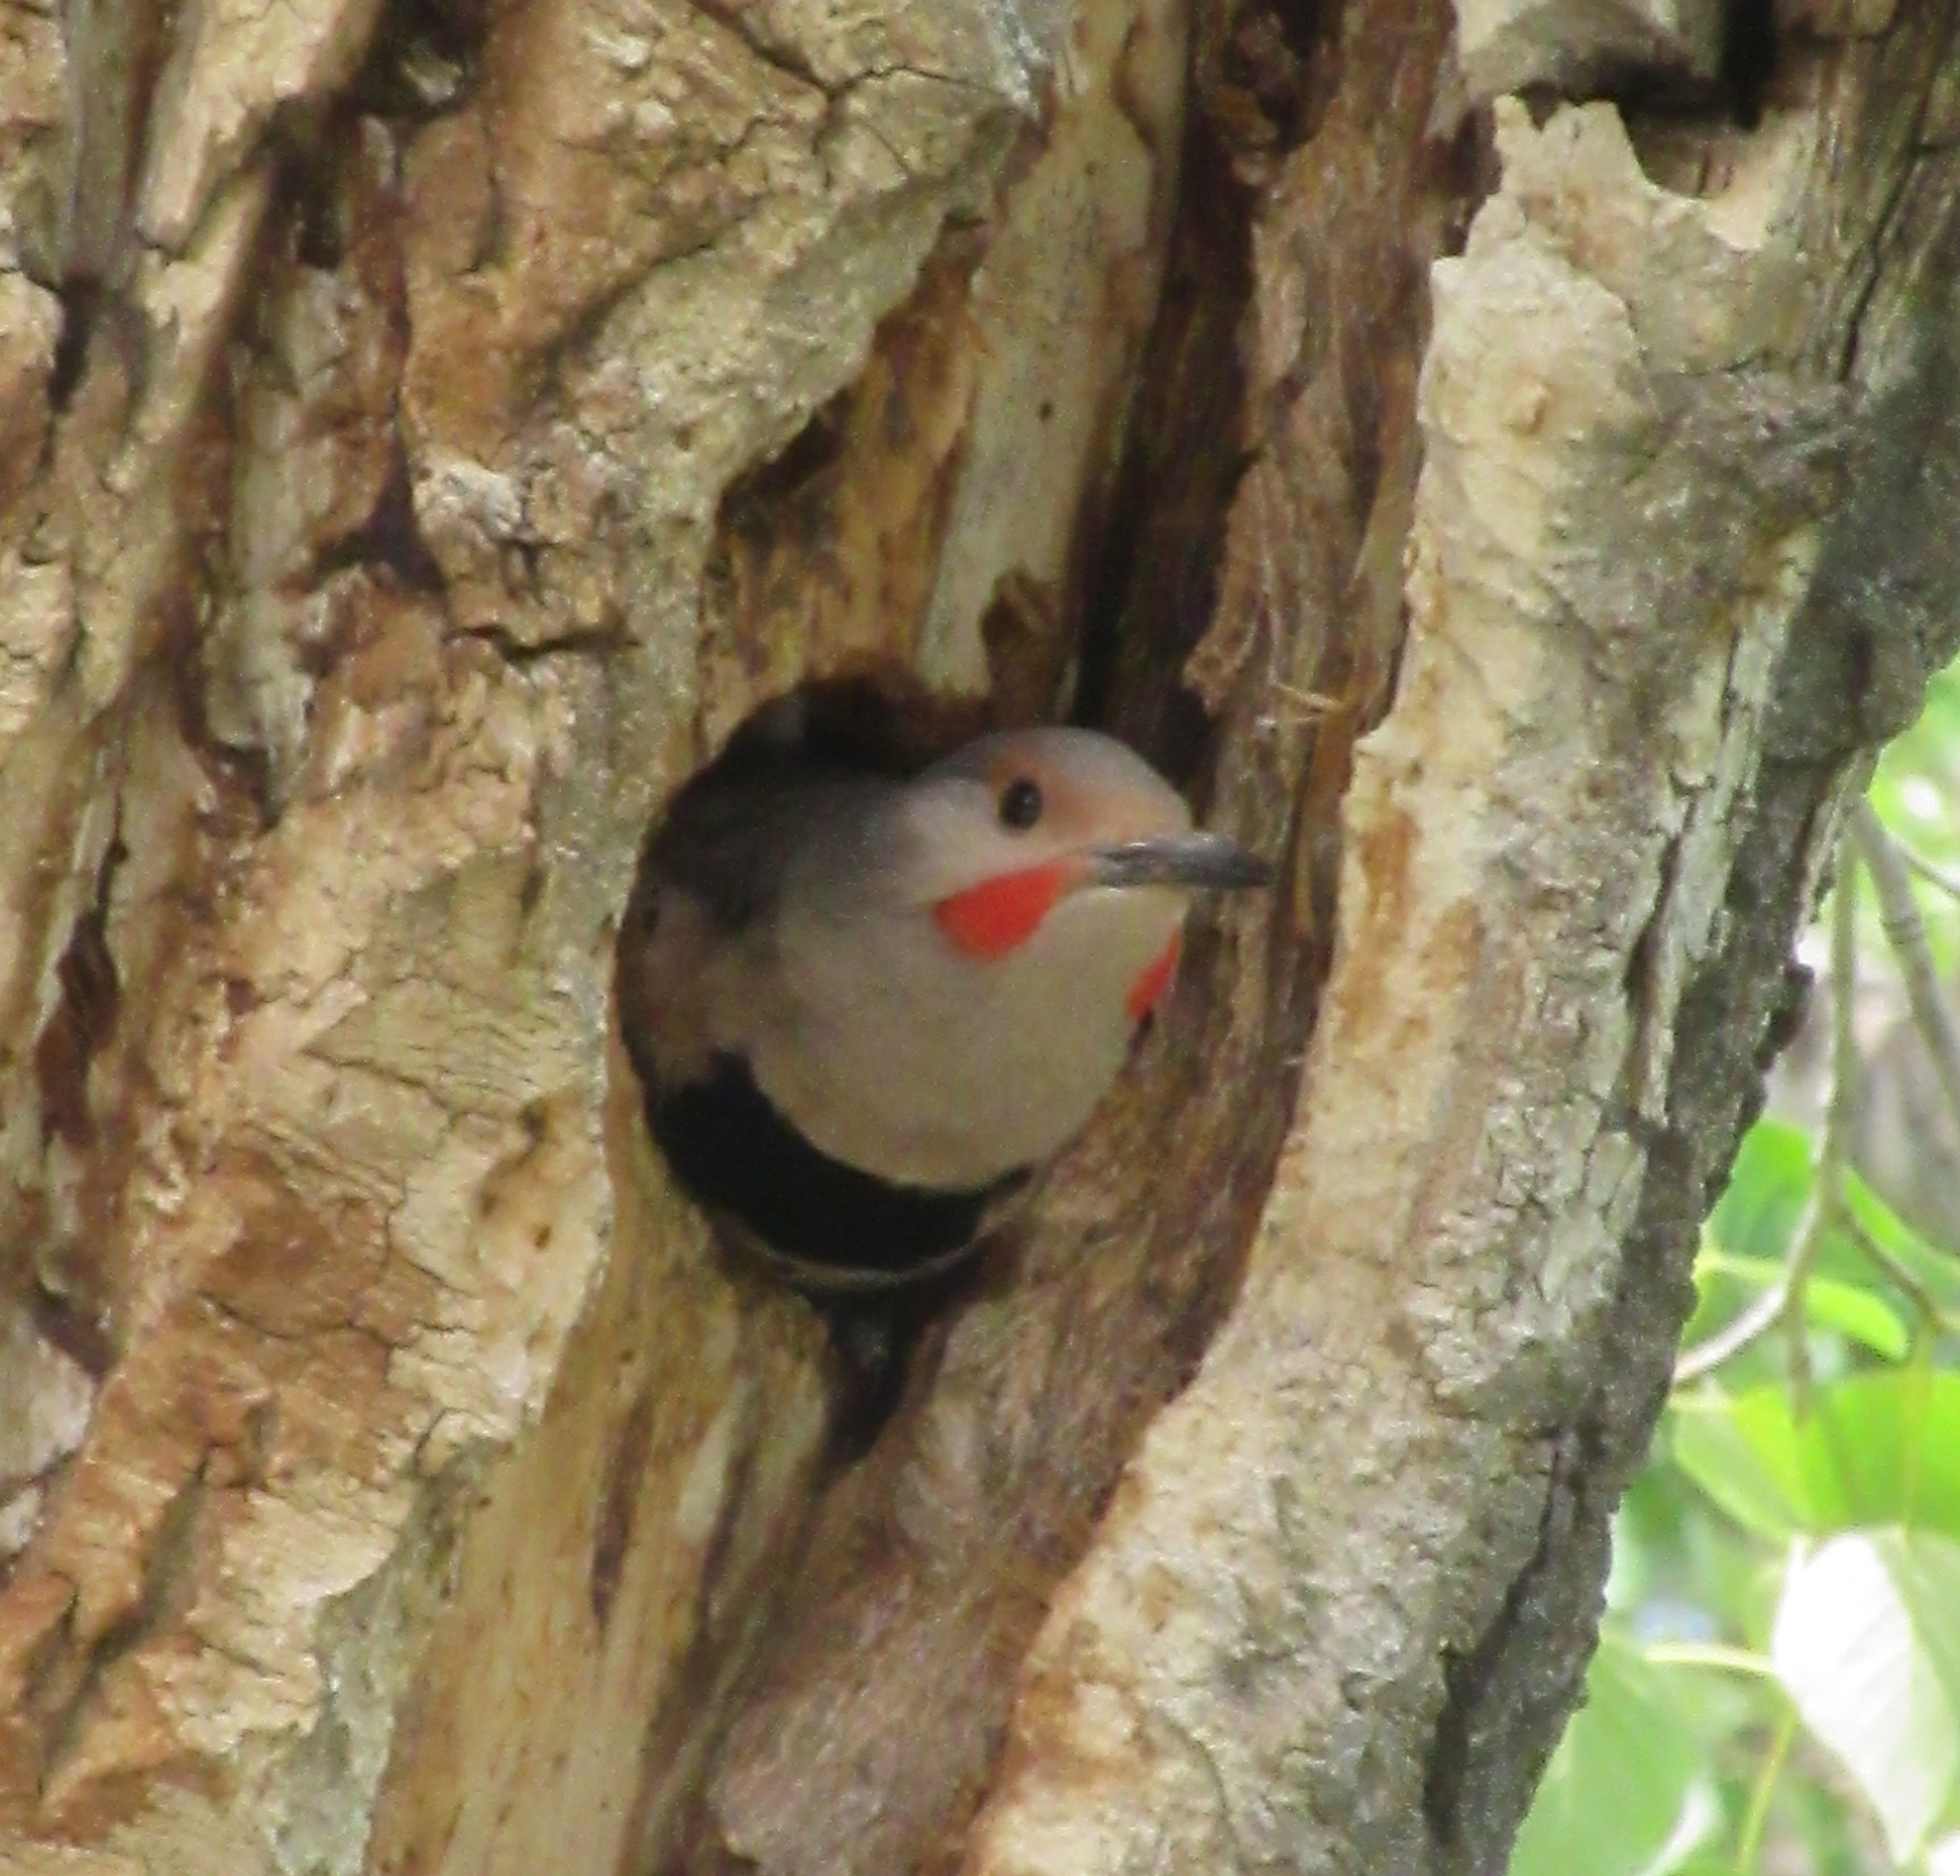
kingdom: Animalia
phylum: Chordata
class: Aves
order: Piciformes
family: Picidae
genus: Colaptes
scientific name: Colaptes auratus
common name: Northern flicker
